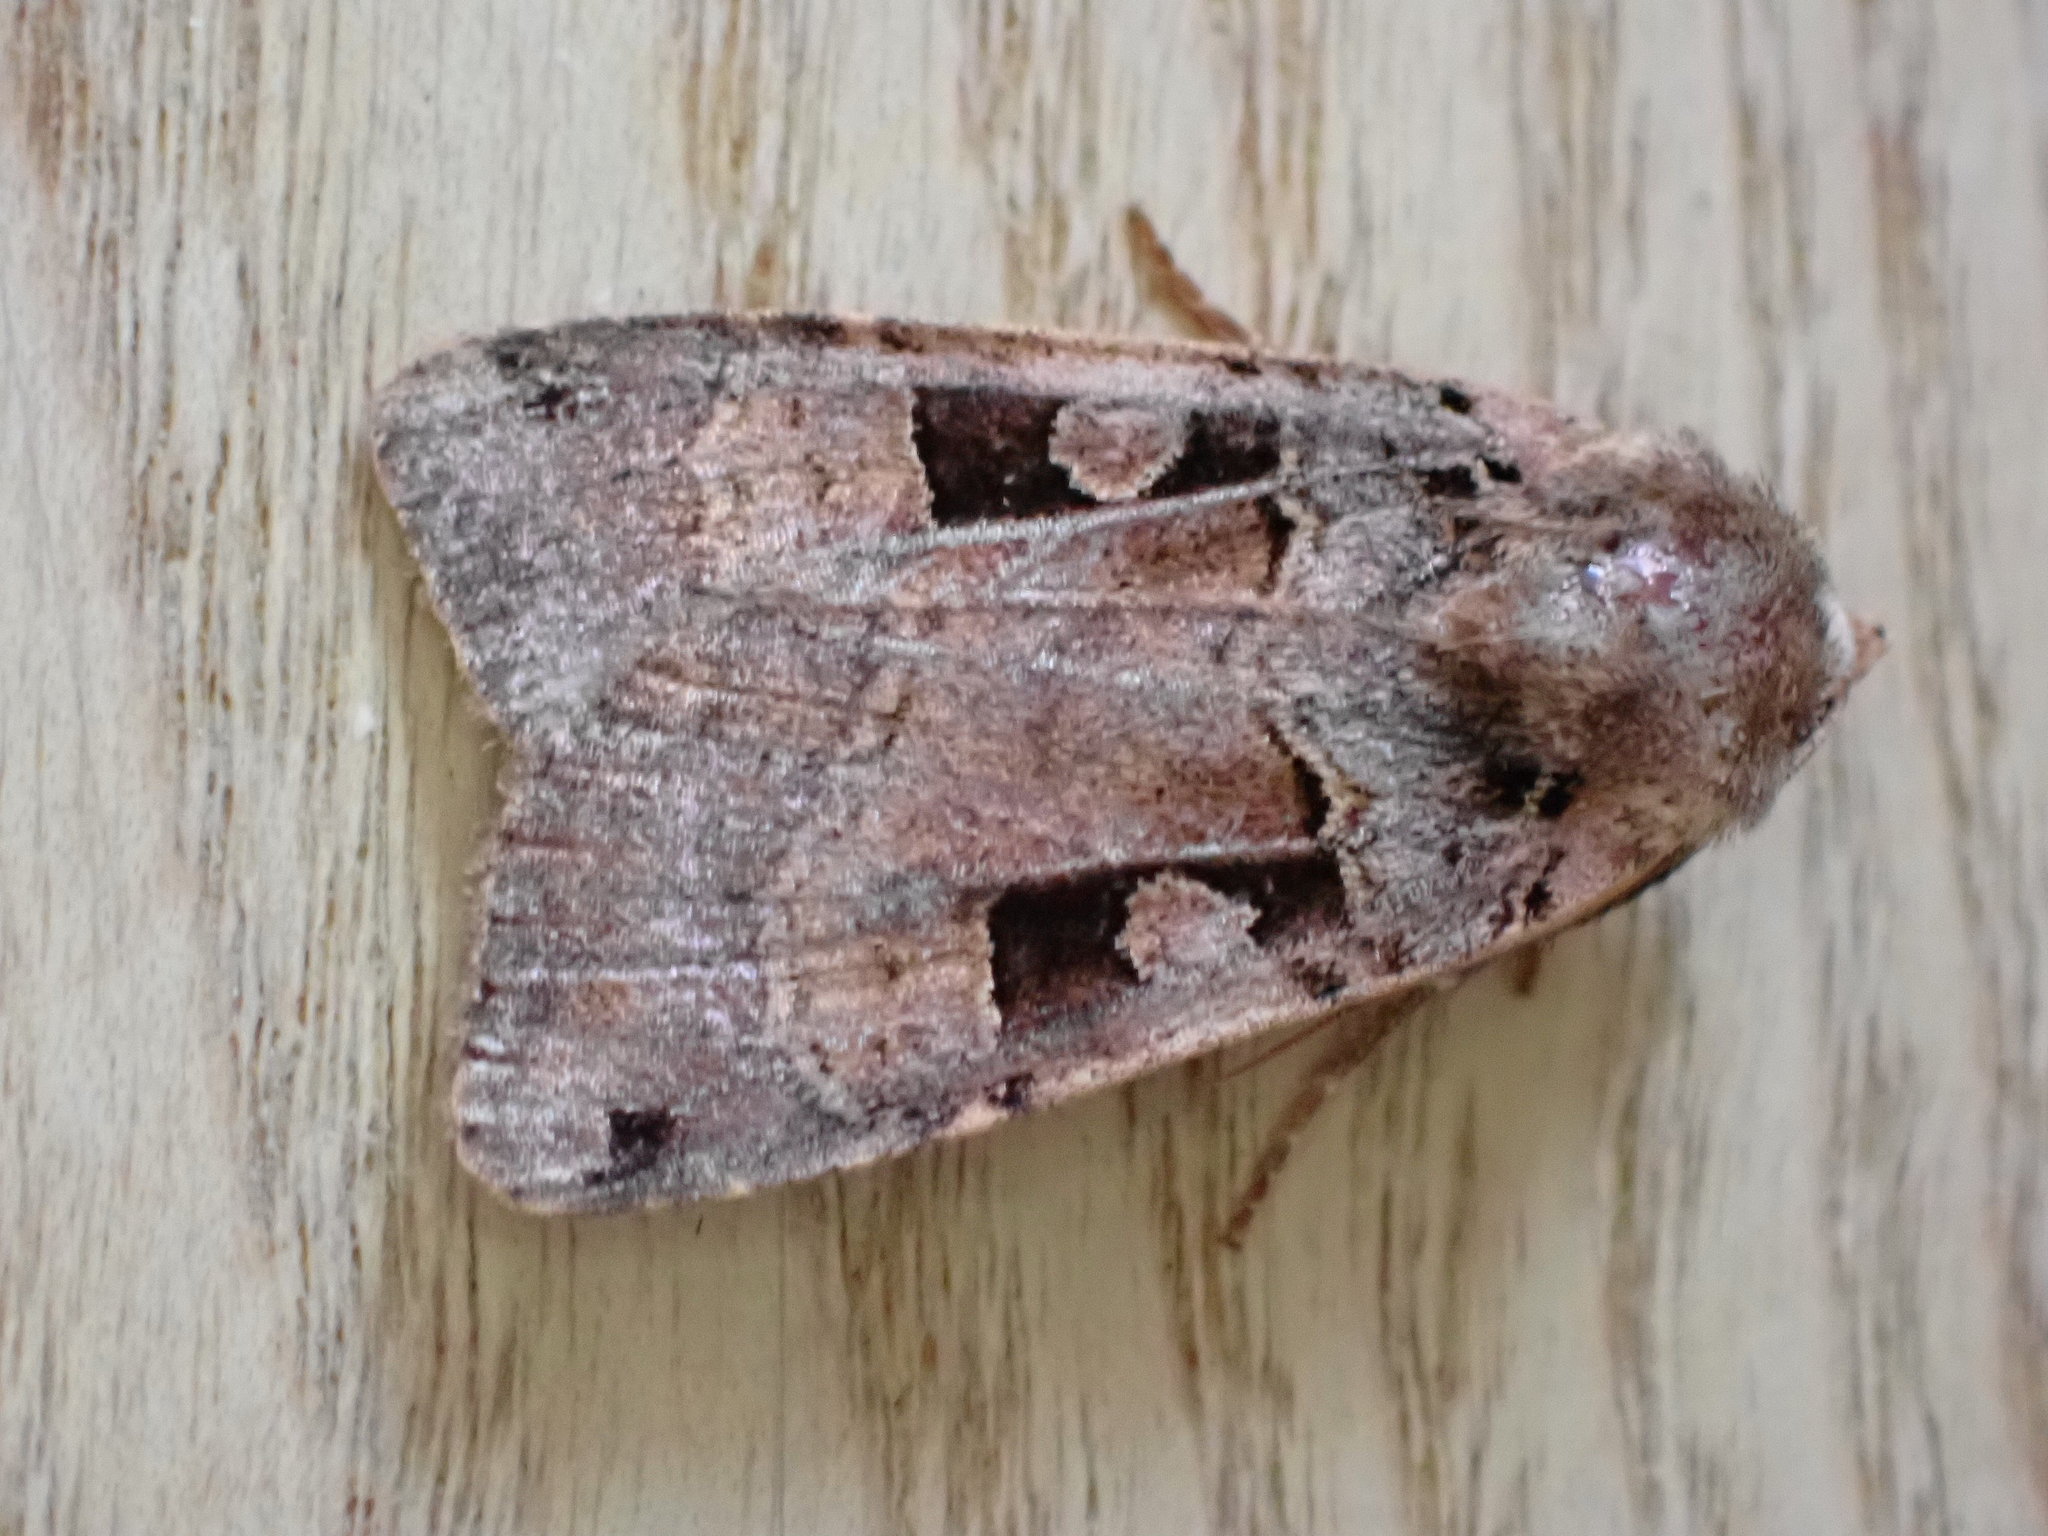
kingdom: Animalia
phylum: Arthropoda
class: Insecta
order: Lepidoptera
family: Noctuidae
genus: Xestia
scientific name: Xestia triangulum
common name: Double square-spot
